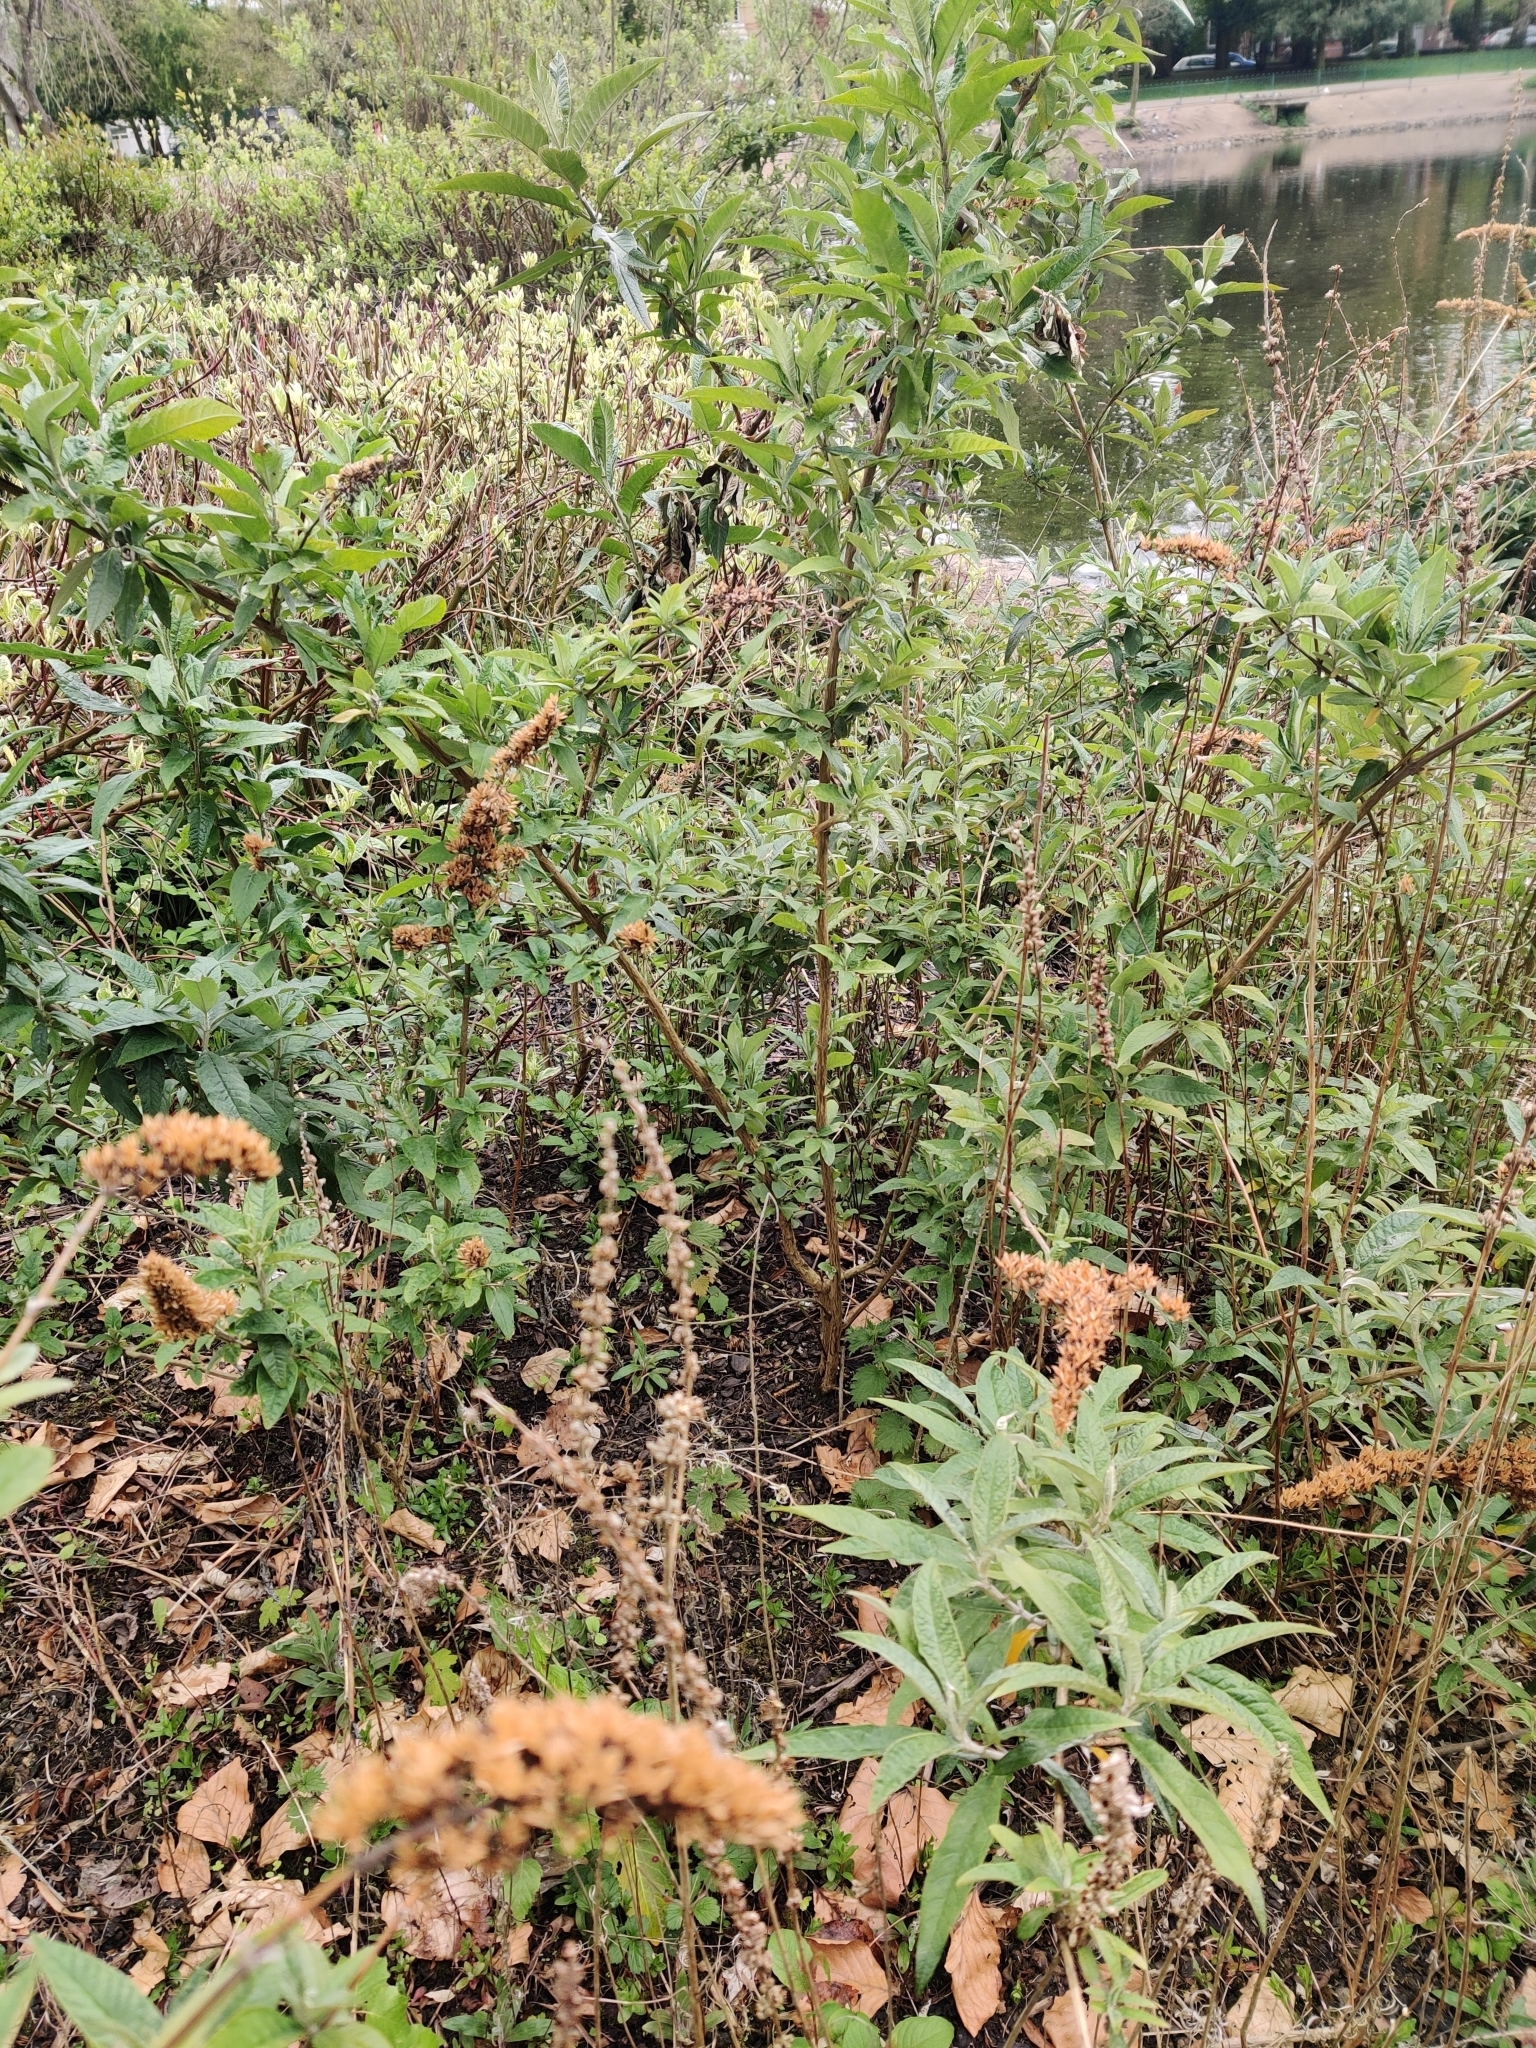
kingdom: Plantae
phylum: Tracheophyta
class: Magnoliopsida
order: Lamiales
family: Scrophulariaceae
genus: Buddleja
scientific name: Buddleja davidii
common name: Butterfly-bush
